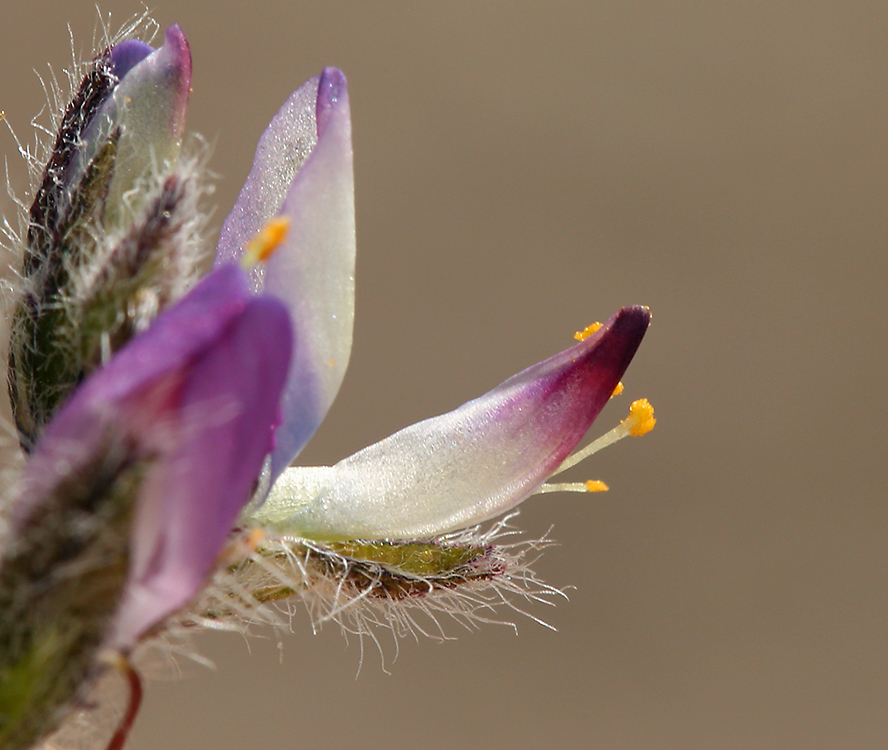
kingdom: Plantae
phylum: Tracheophyta
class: Magnoliopsida
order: Fabales
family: Fabaceae
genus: Lupinus
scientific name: Lupinus concinnus
